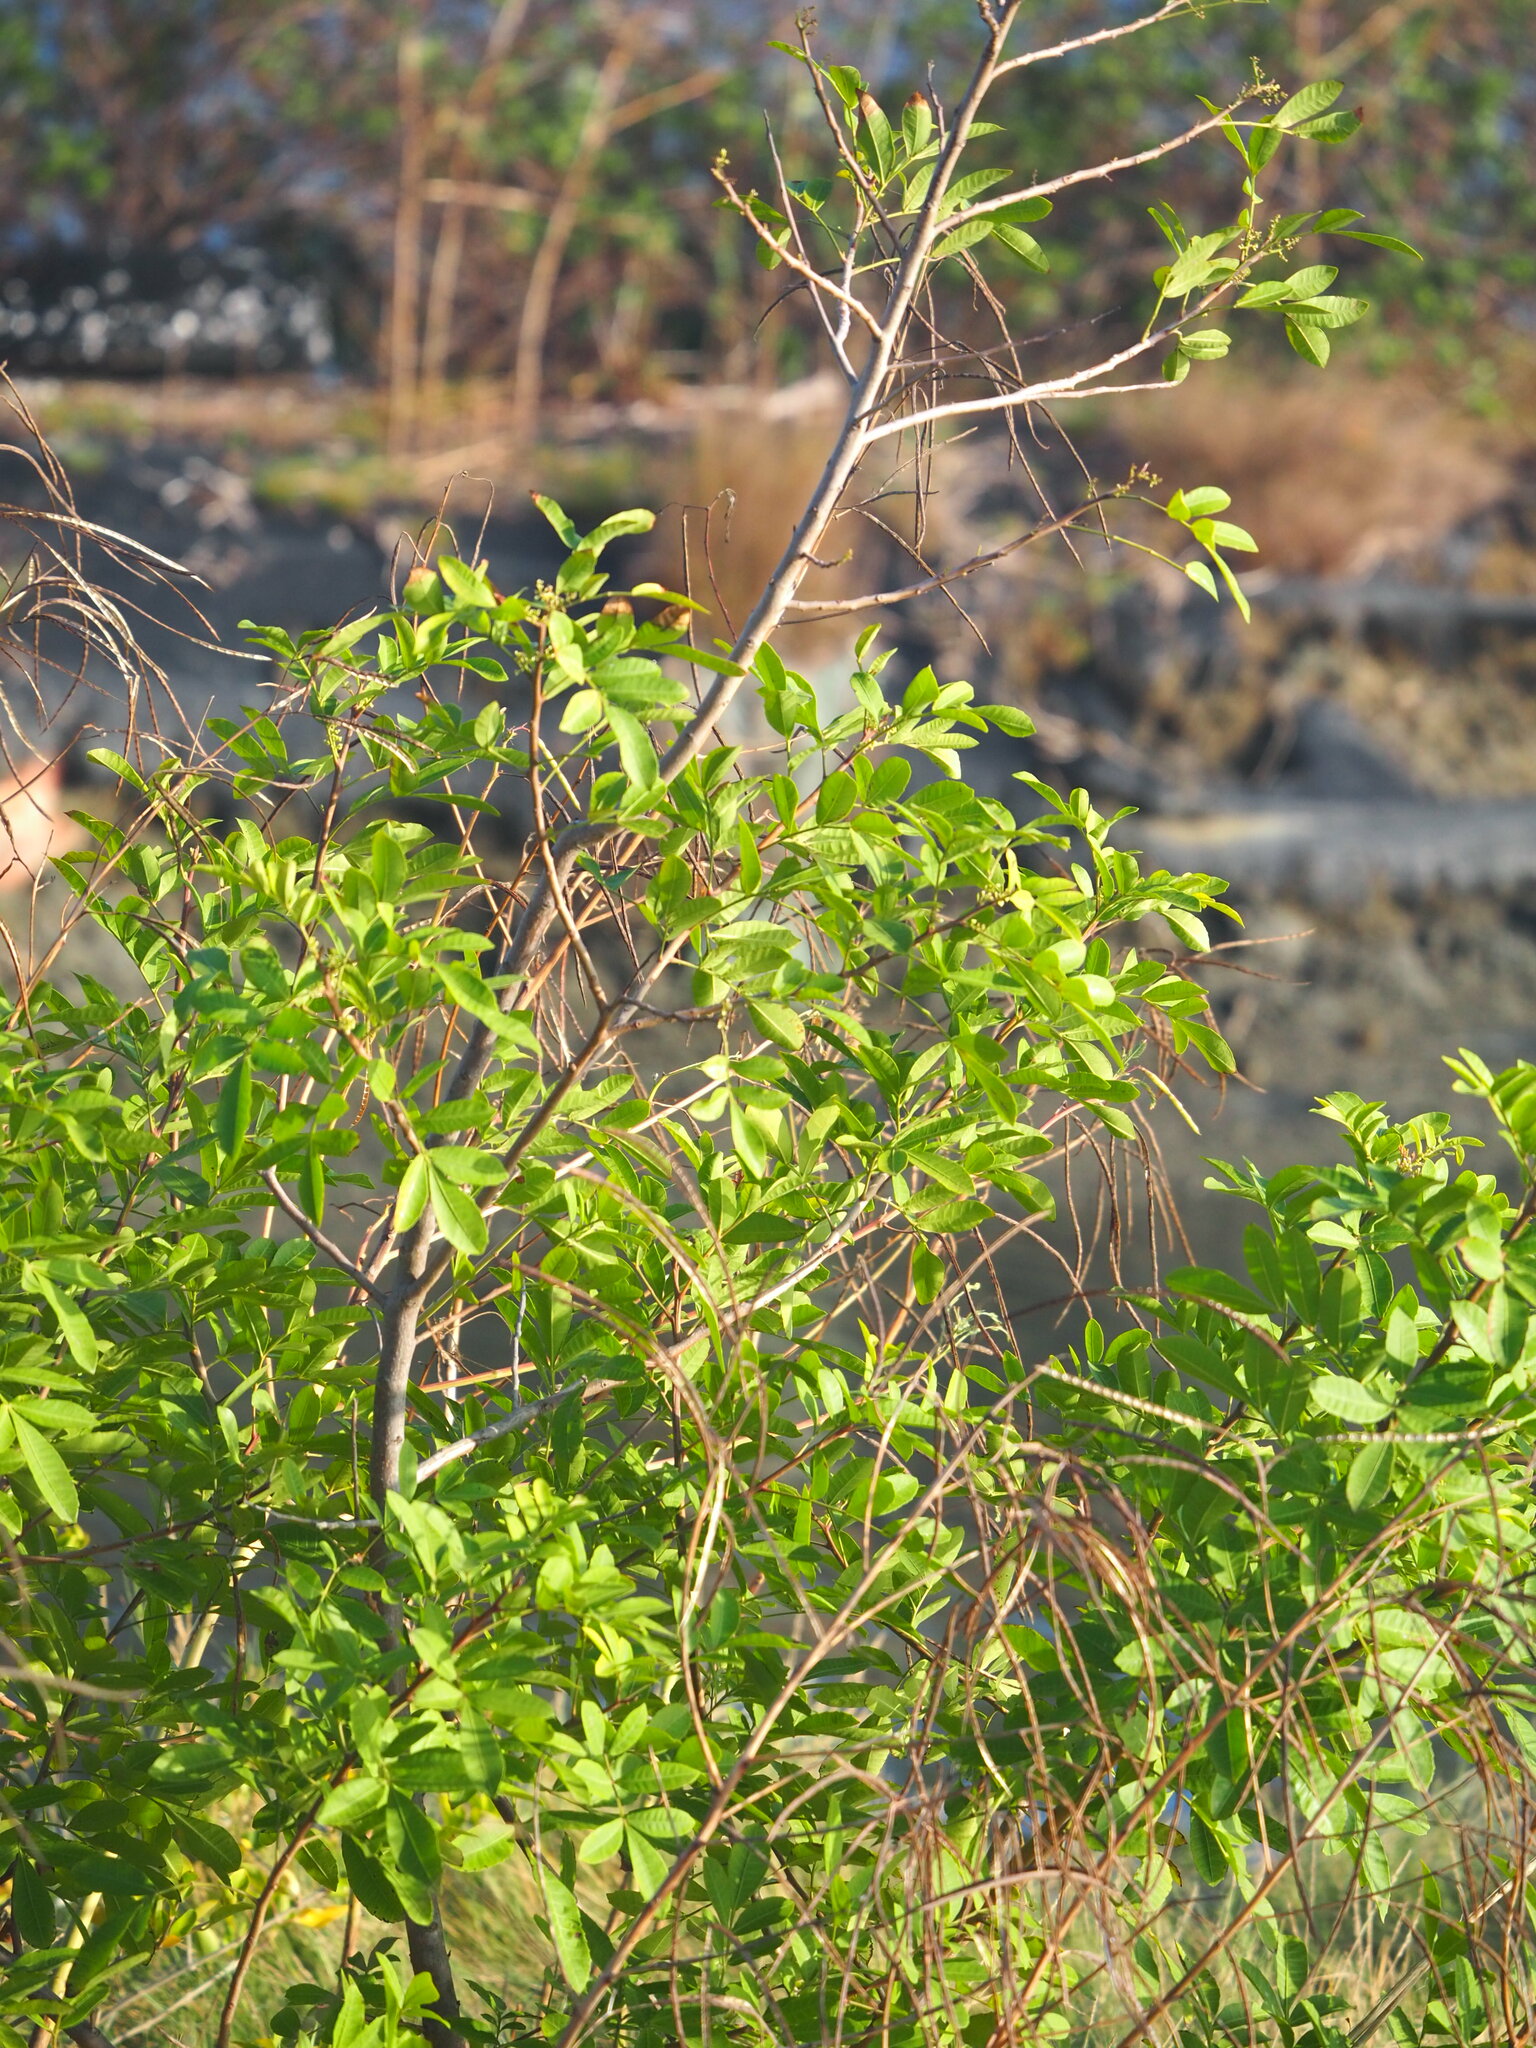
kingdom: Plantae
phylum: Tracheophyta
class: Magnoliopsida
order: Sapindales
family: Anacardiaceae
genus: Schinus
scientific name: Schinus terebinthifolia
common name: Brazilian peppertree
